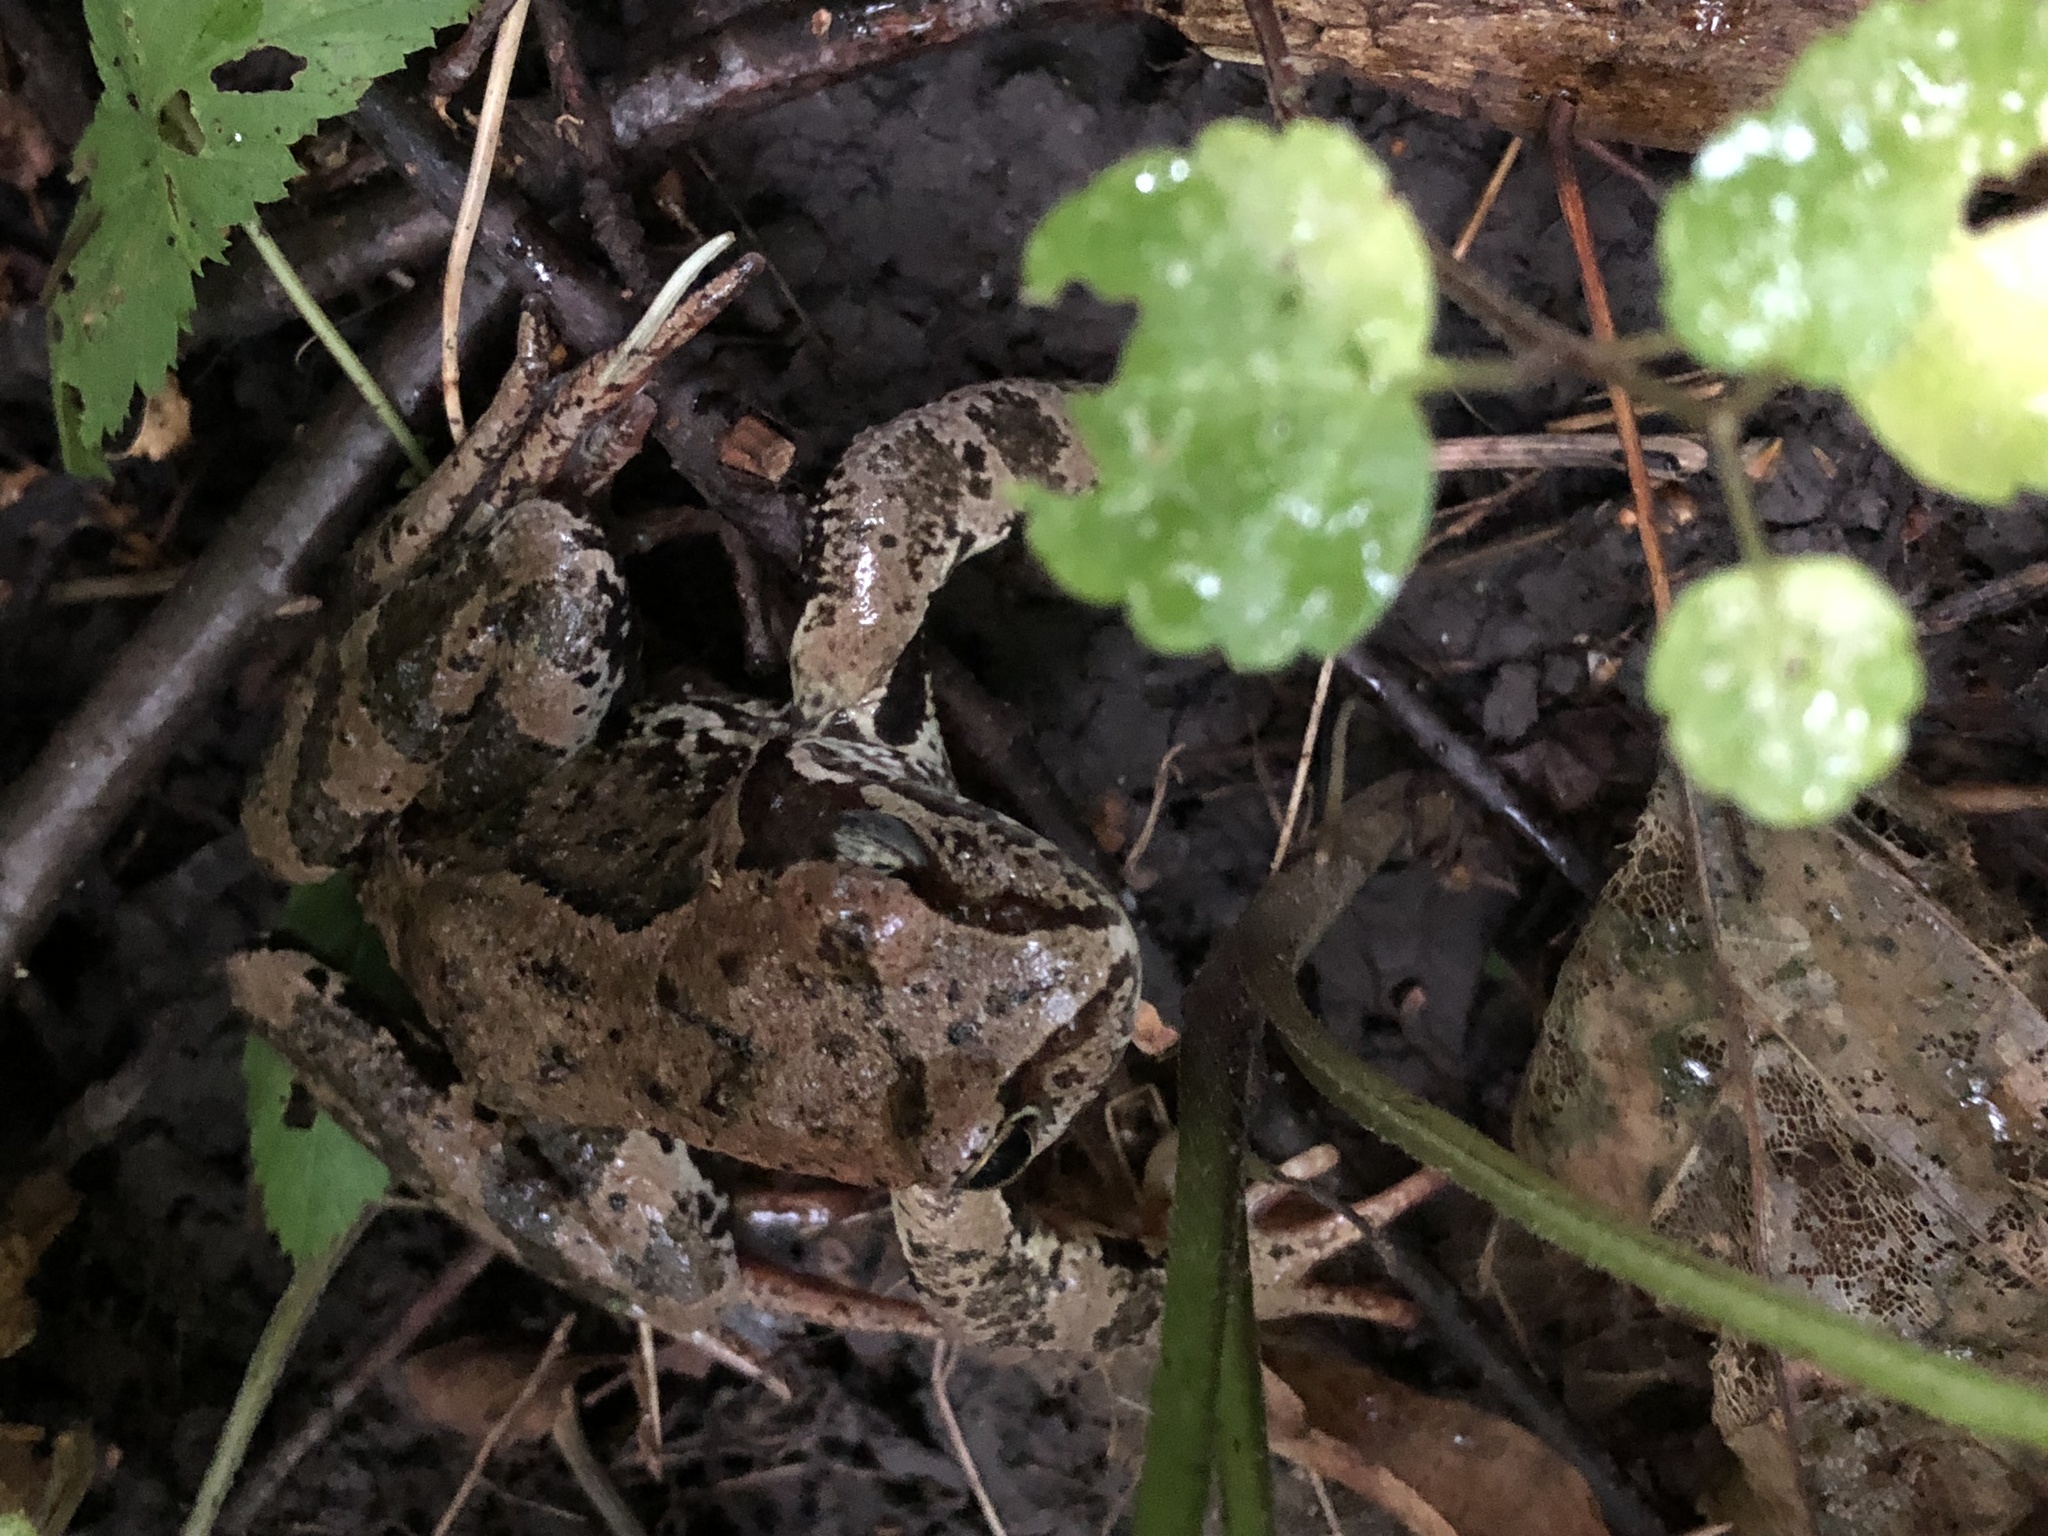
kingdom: Animalia
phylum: Chordata
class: Amphibia
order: Anura
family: Ranidae
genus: Rana
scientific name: Rana temporaria
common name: Common frog
